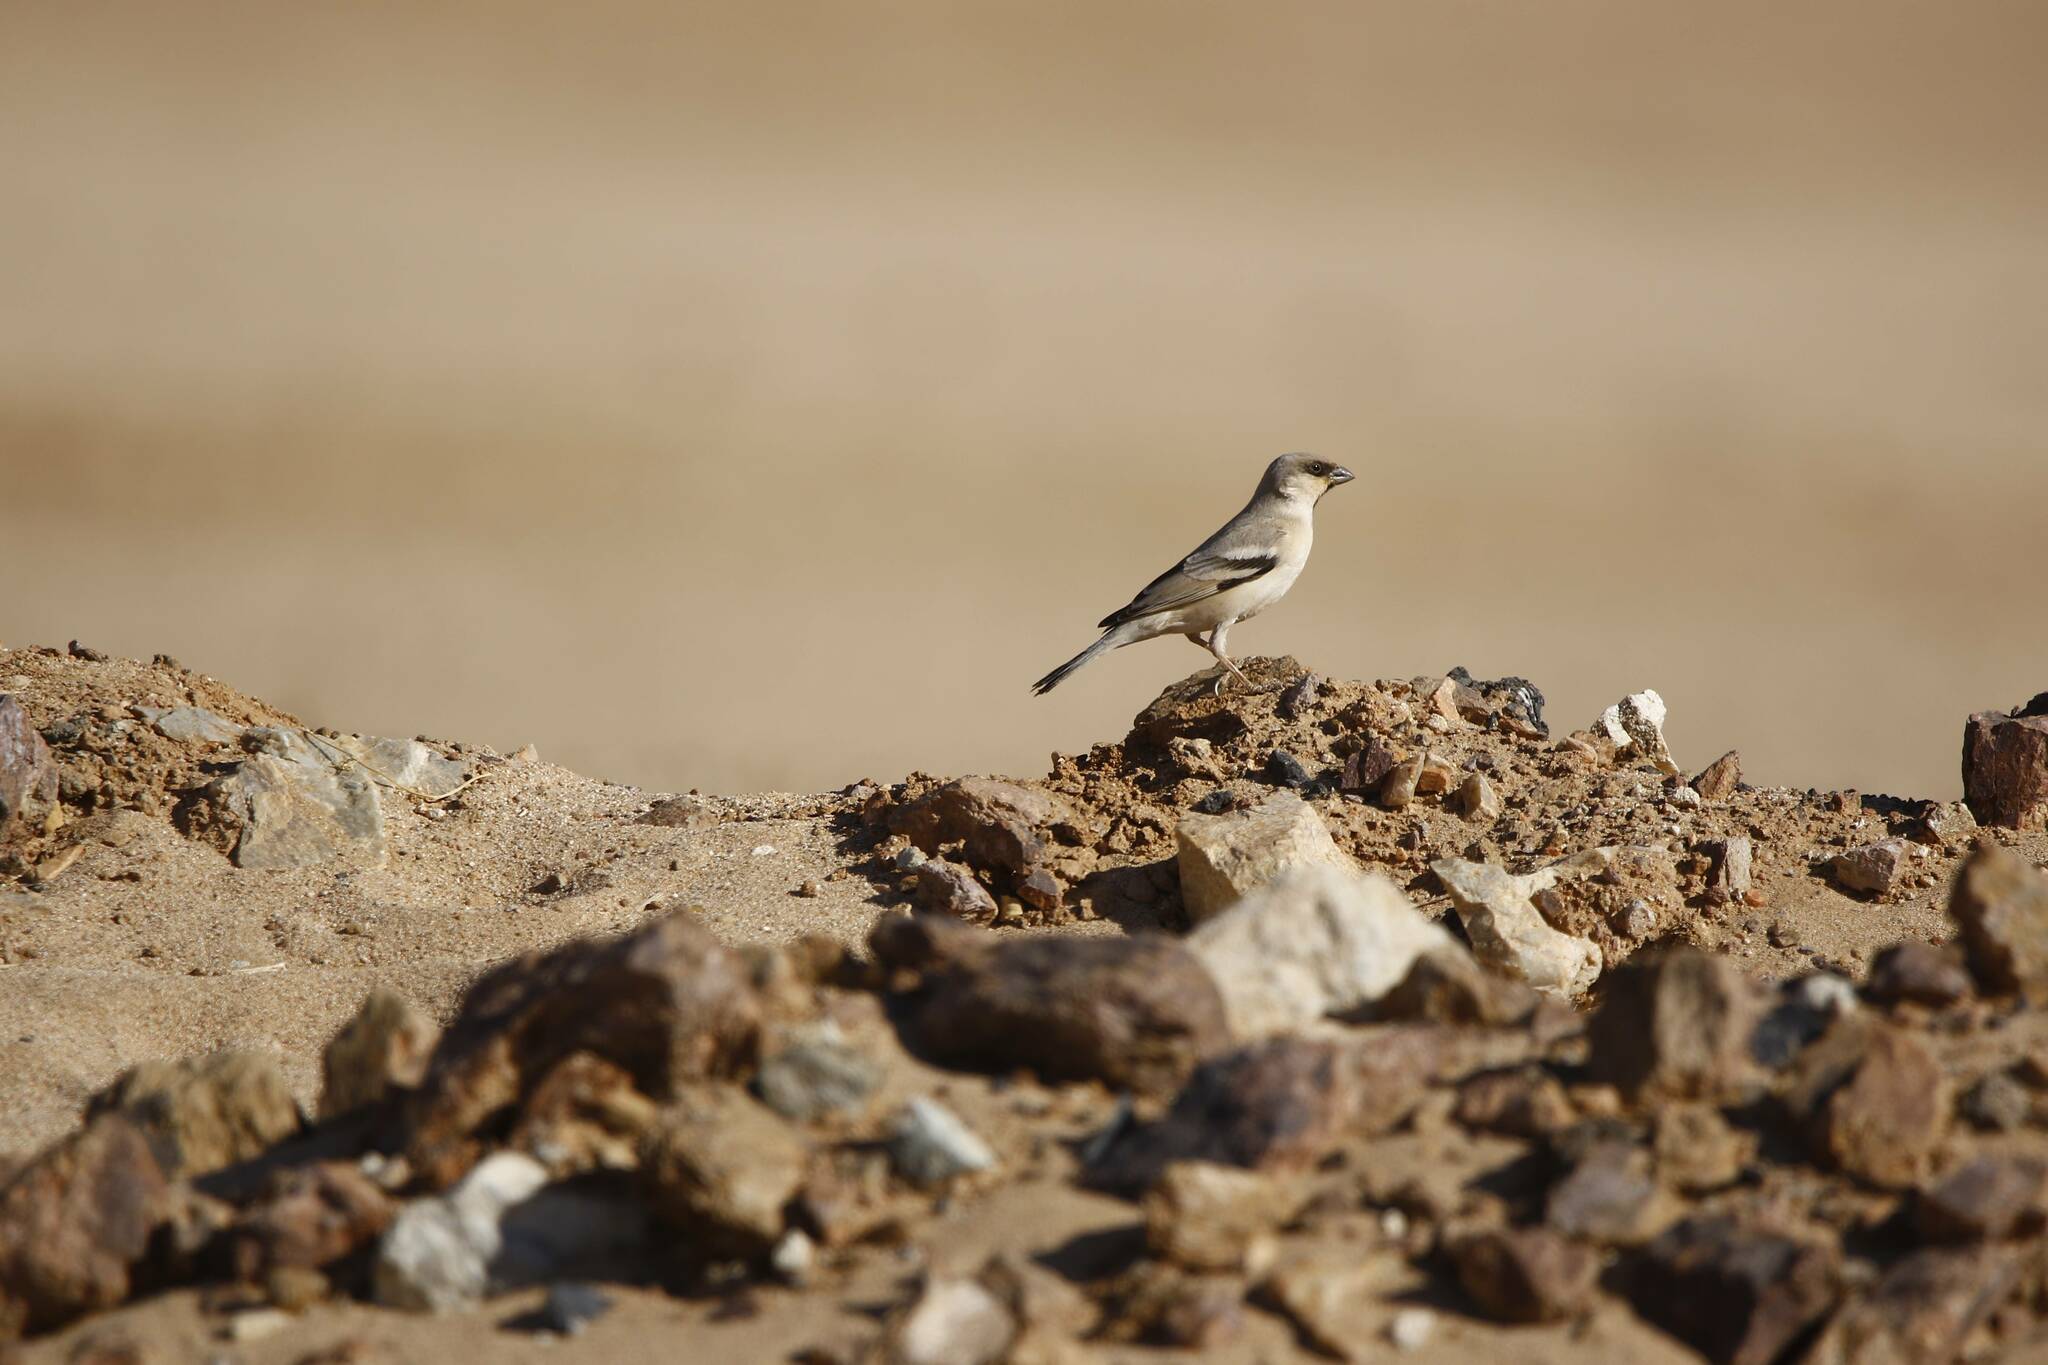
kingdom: Animalia
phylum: Chordata
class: Aves
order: Passeriformes
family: Passeridae
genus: Passer
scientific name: Passer simplex
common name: Desert sparrow
